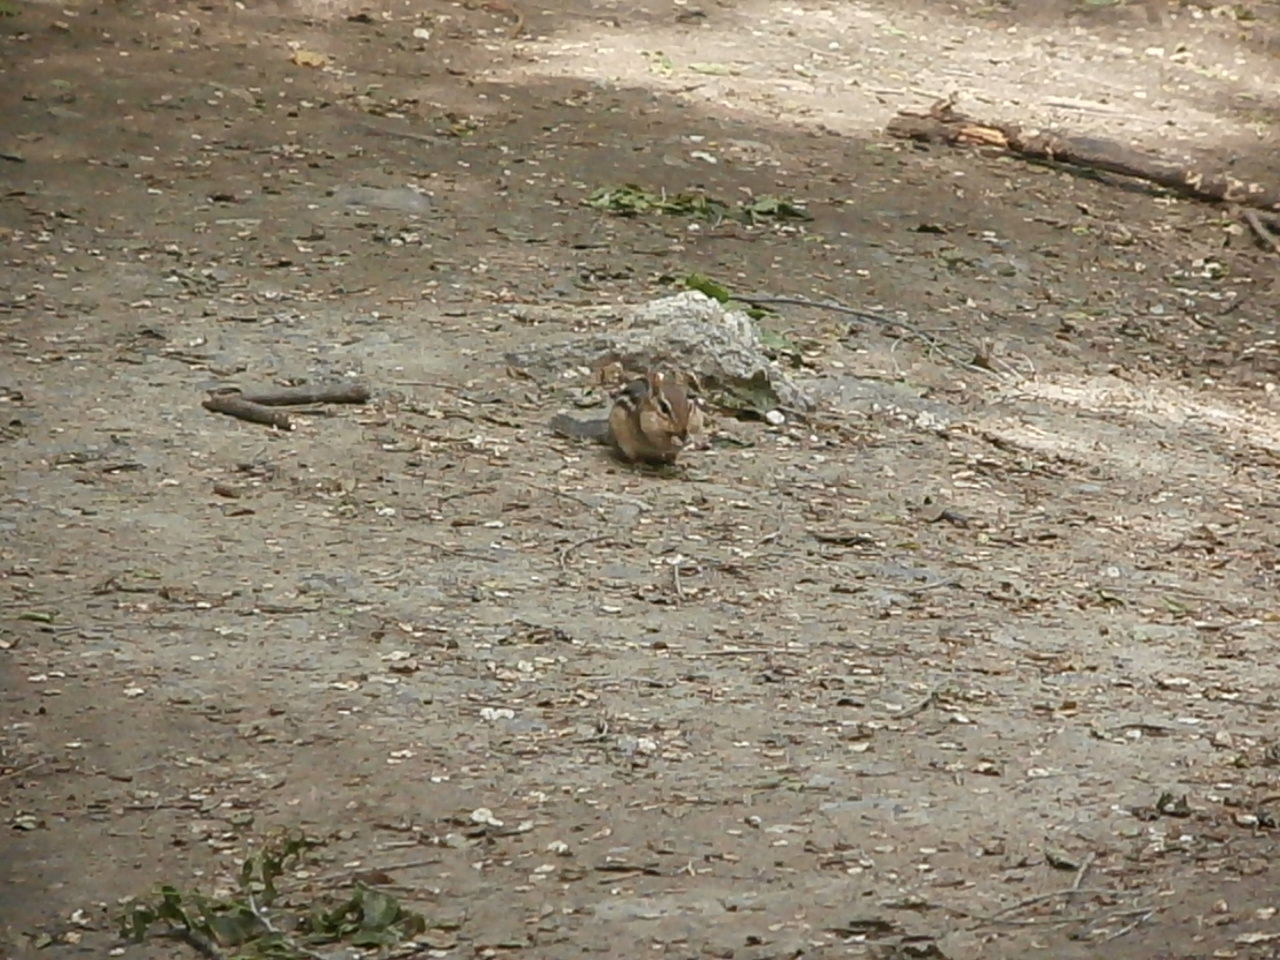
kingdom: Animalia
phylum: Chordata
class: Mammalia
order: Rodentia
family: Sciuridae
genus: Tamias
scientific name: Tamias striatus
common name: Eastern chipmunk
